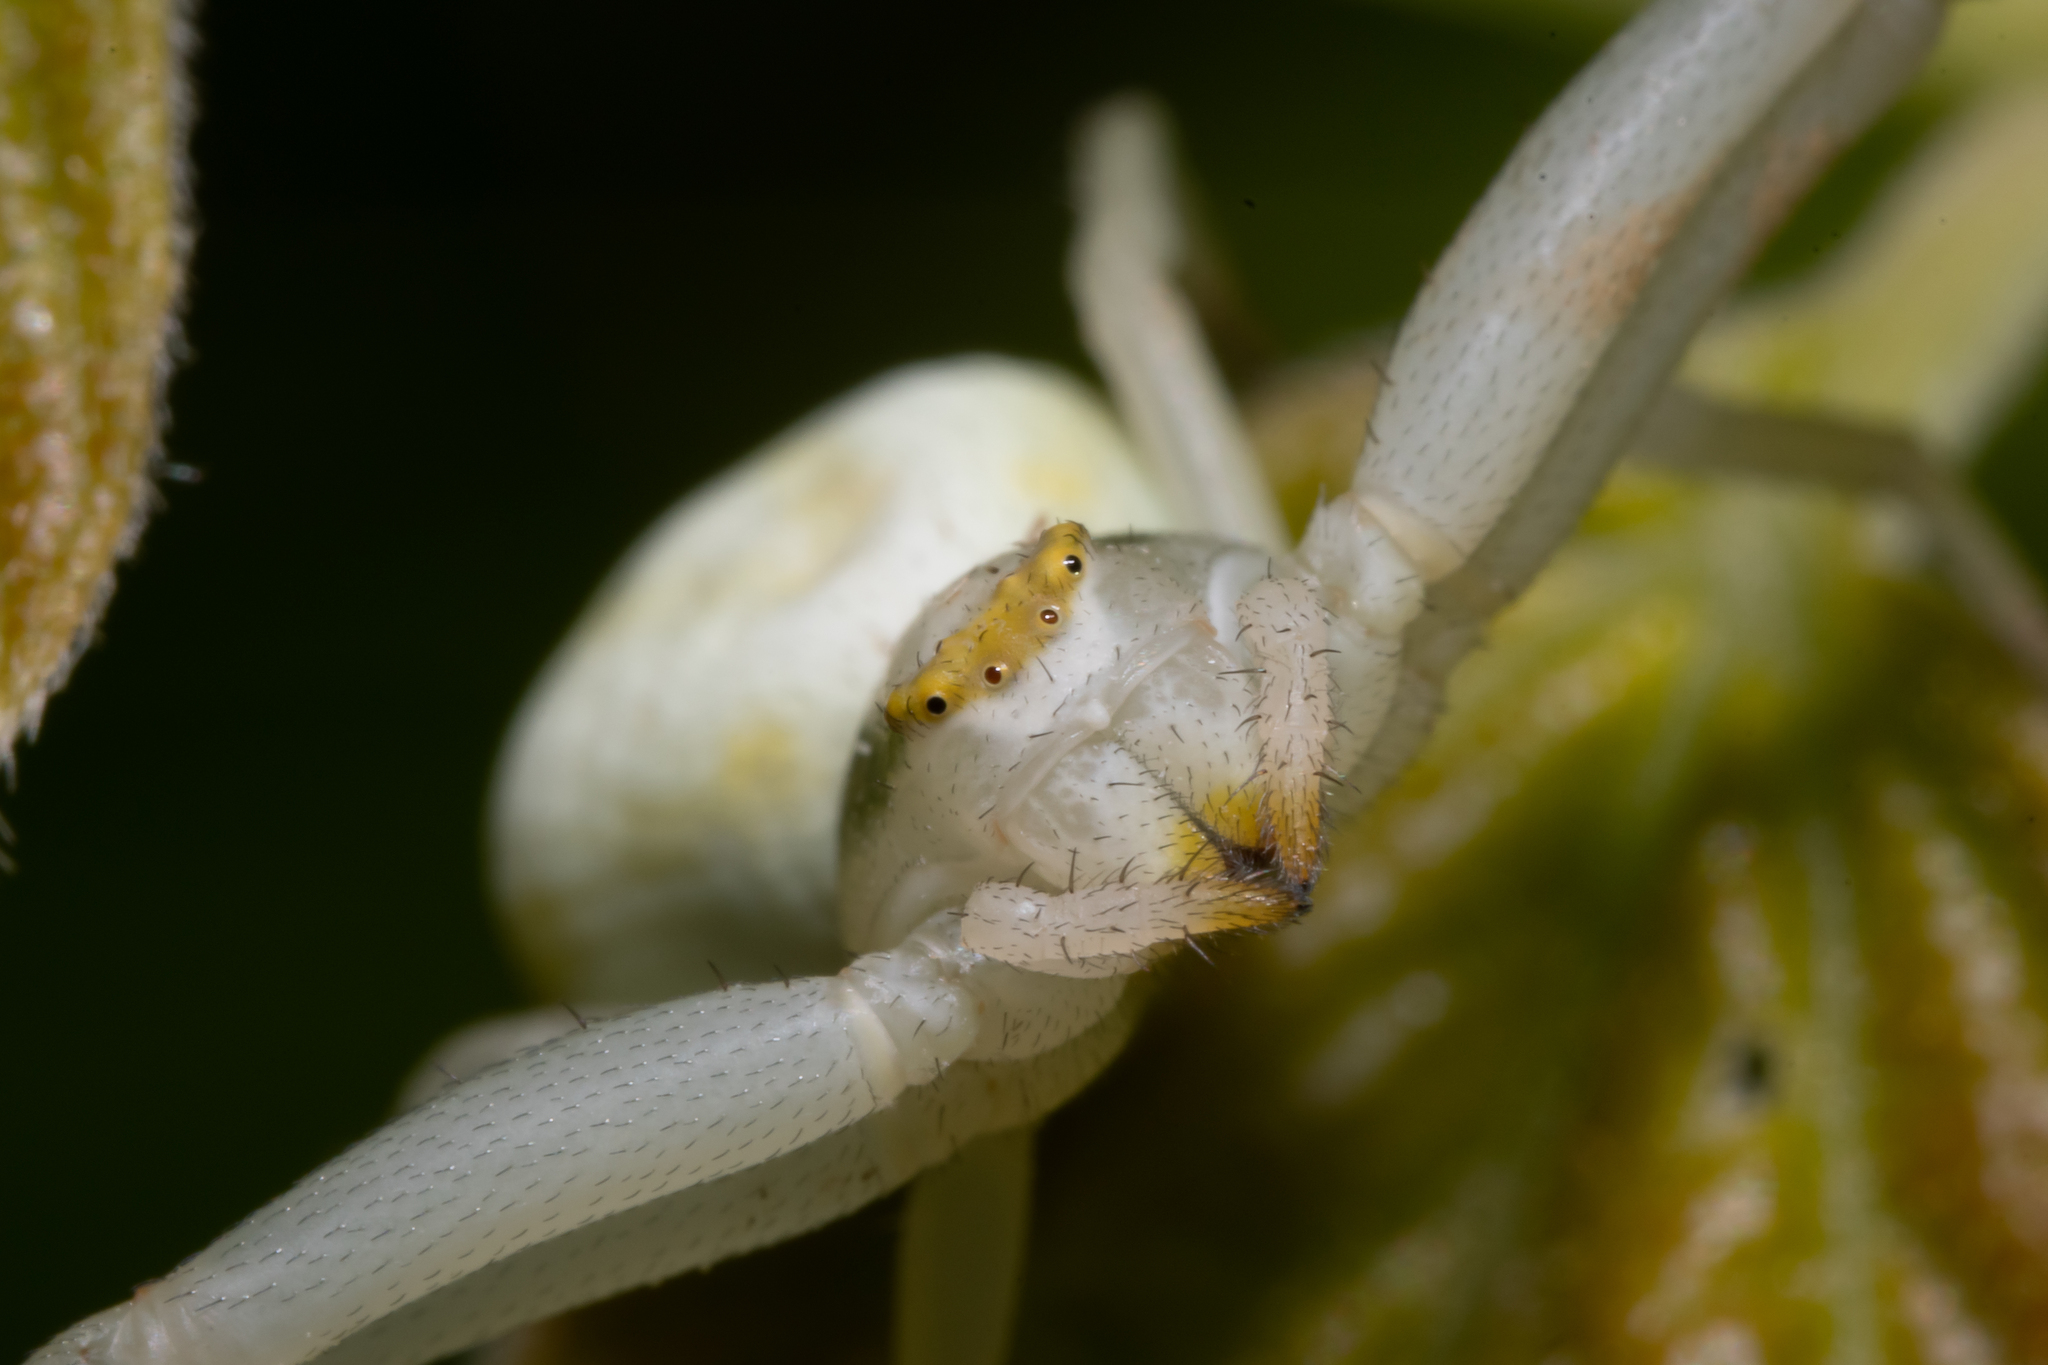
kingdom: Animalia
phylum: Arthropoda
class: Arachnida
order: Araneae
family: Thomisidae
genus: Misumena
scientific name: Misumena vatia
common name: Goldenrod crab spider
